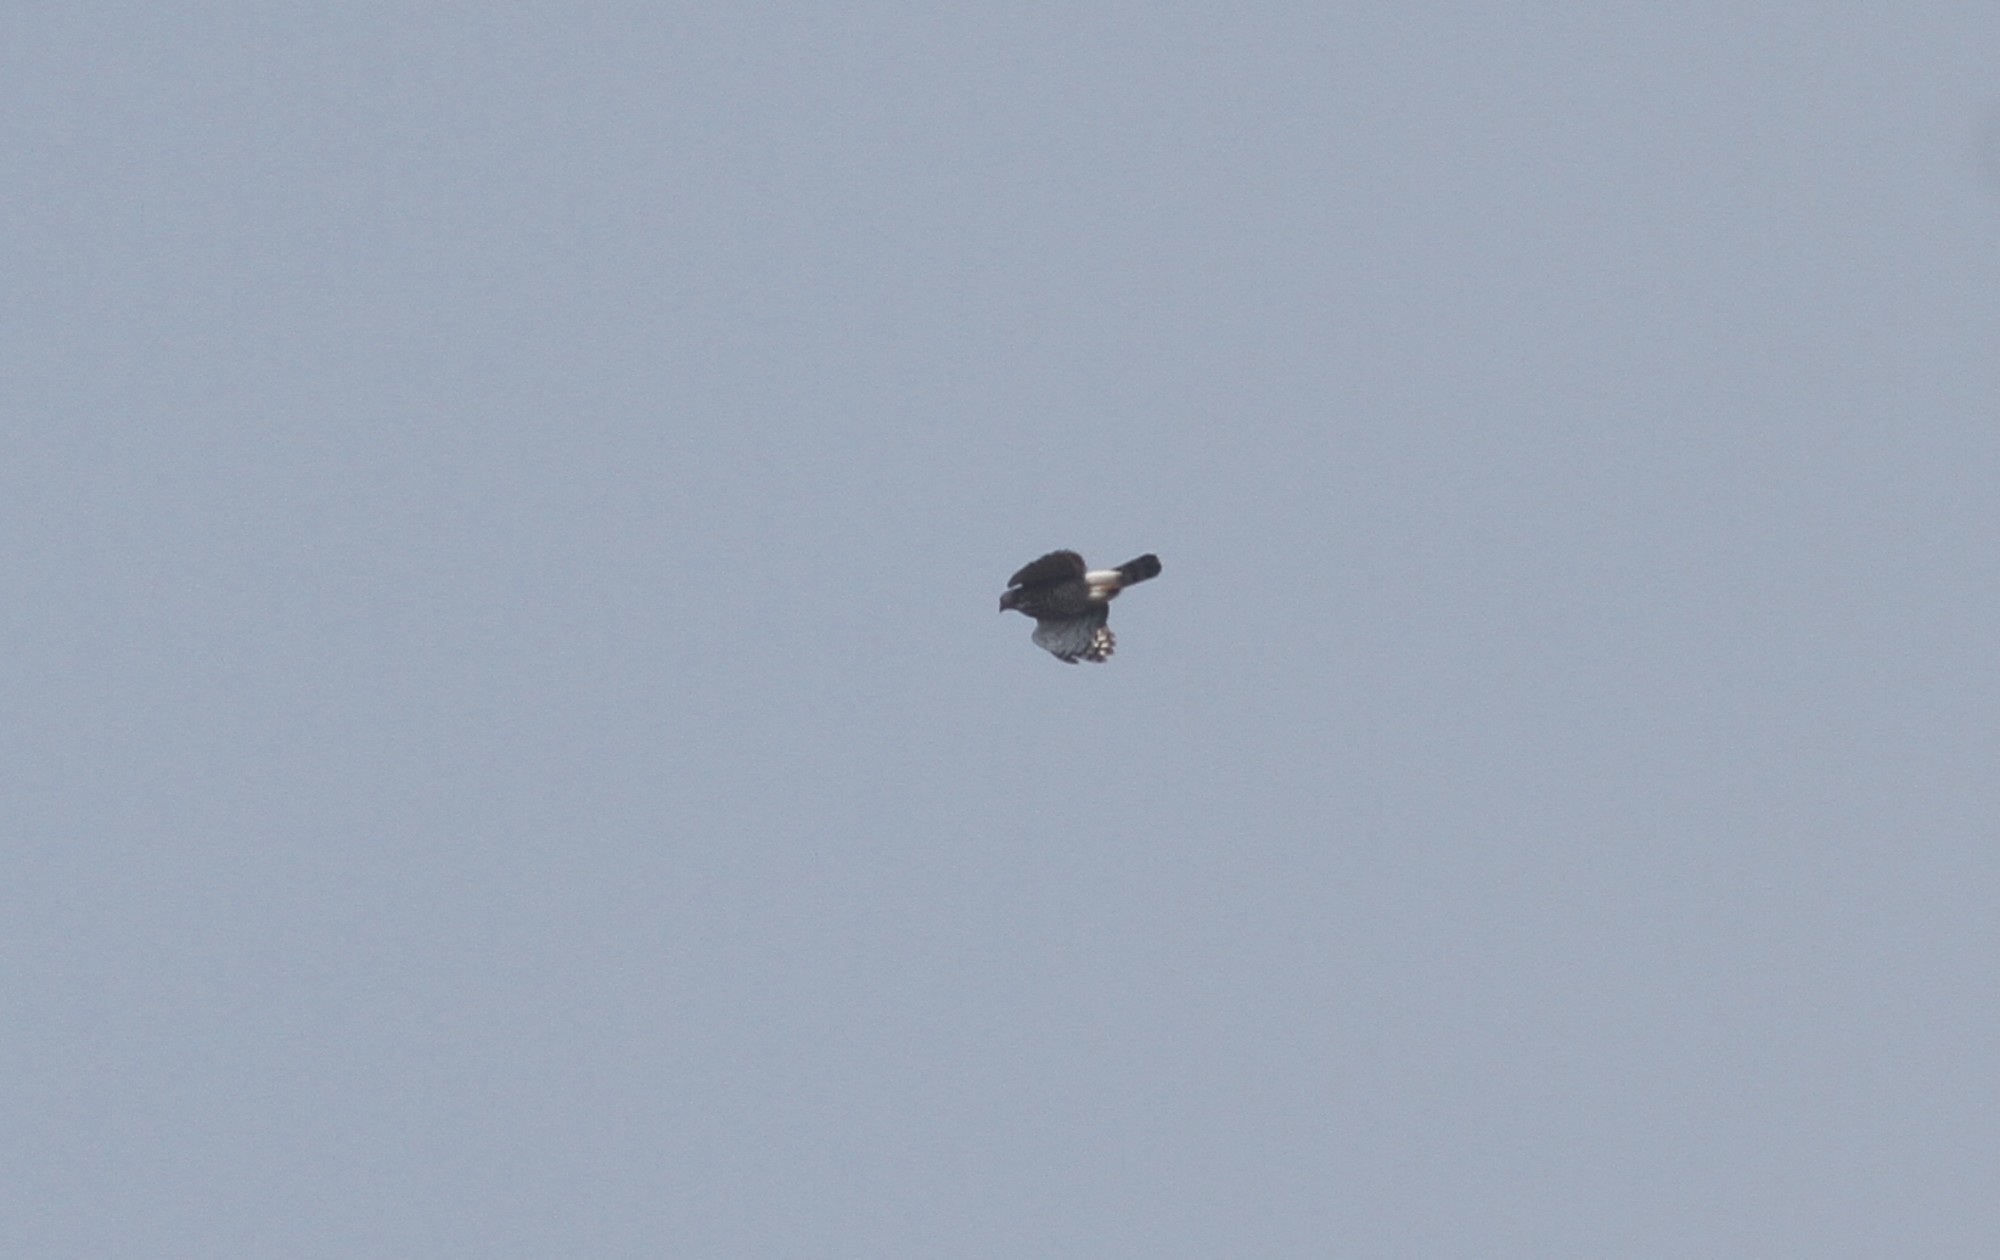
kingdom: Animalia
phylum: Chordata
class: Aves
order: Accipitriformes
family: Accipitridae
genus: Accipiter
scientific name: Accipiter trivirgatus
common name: Crested goshawk
